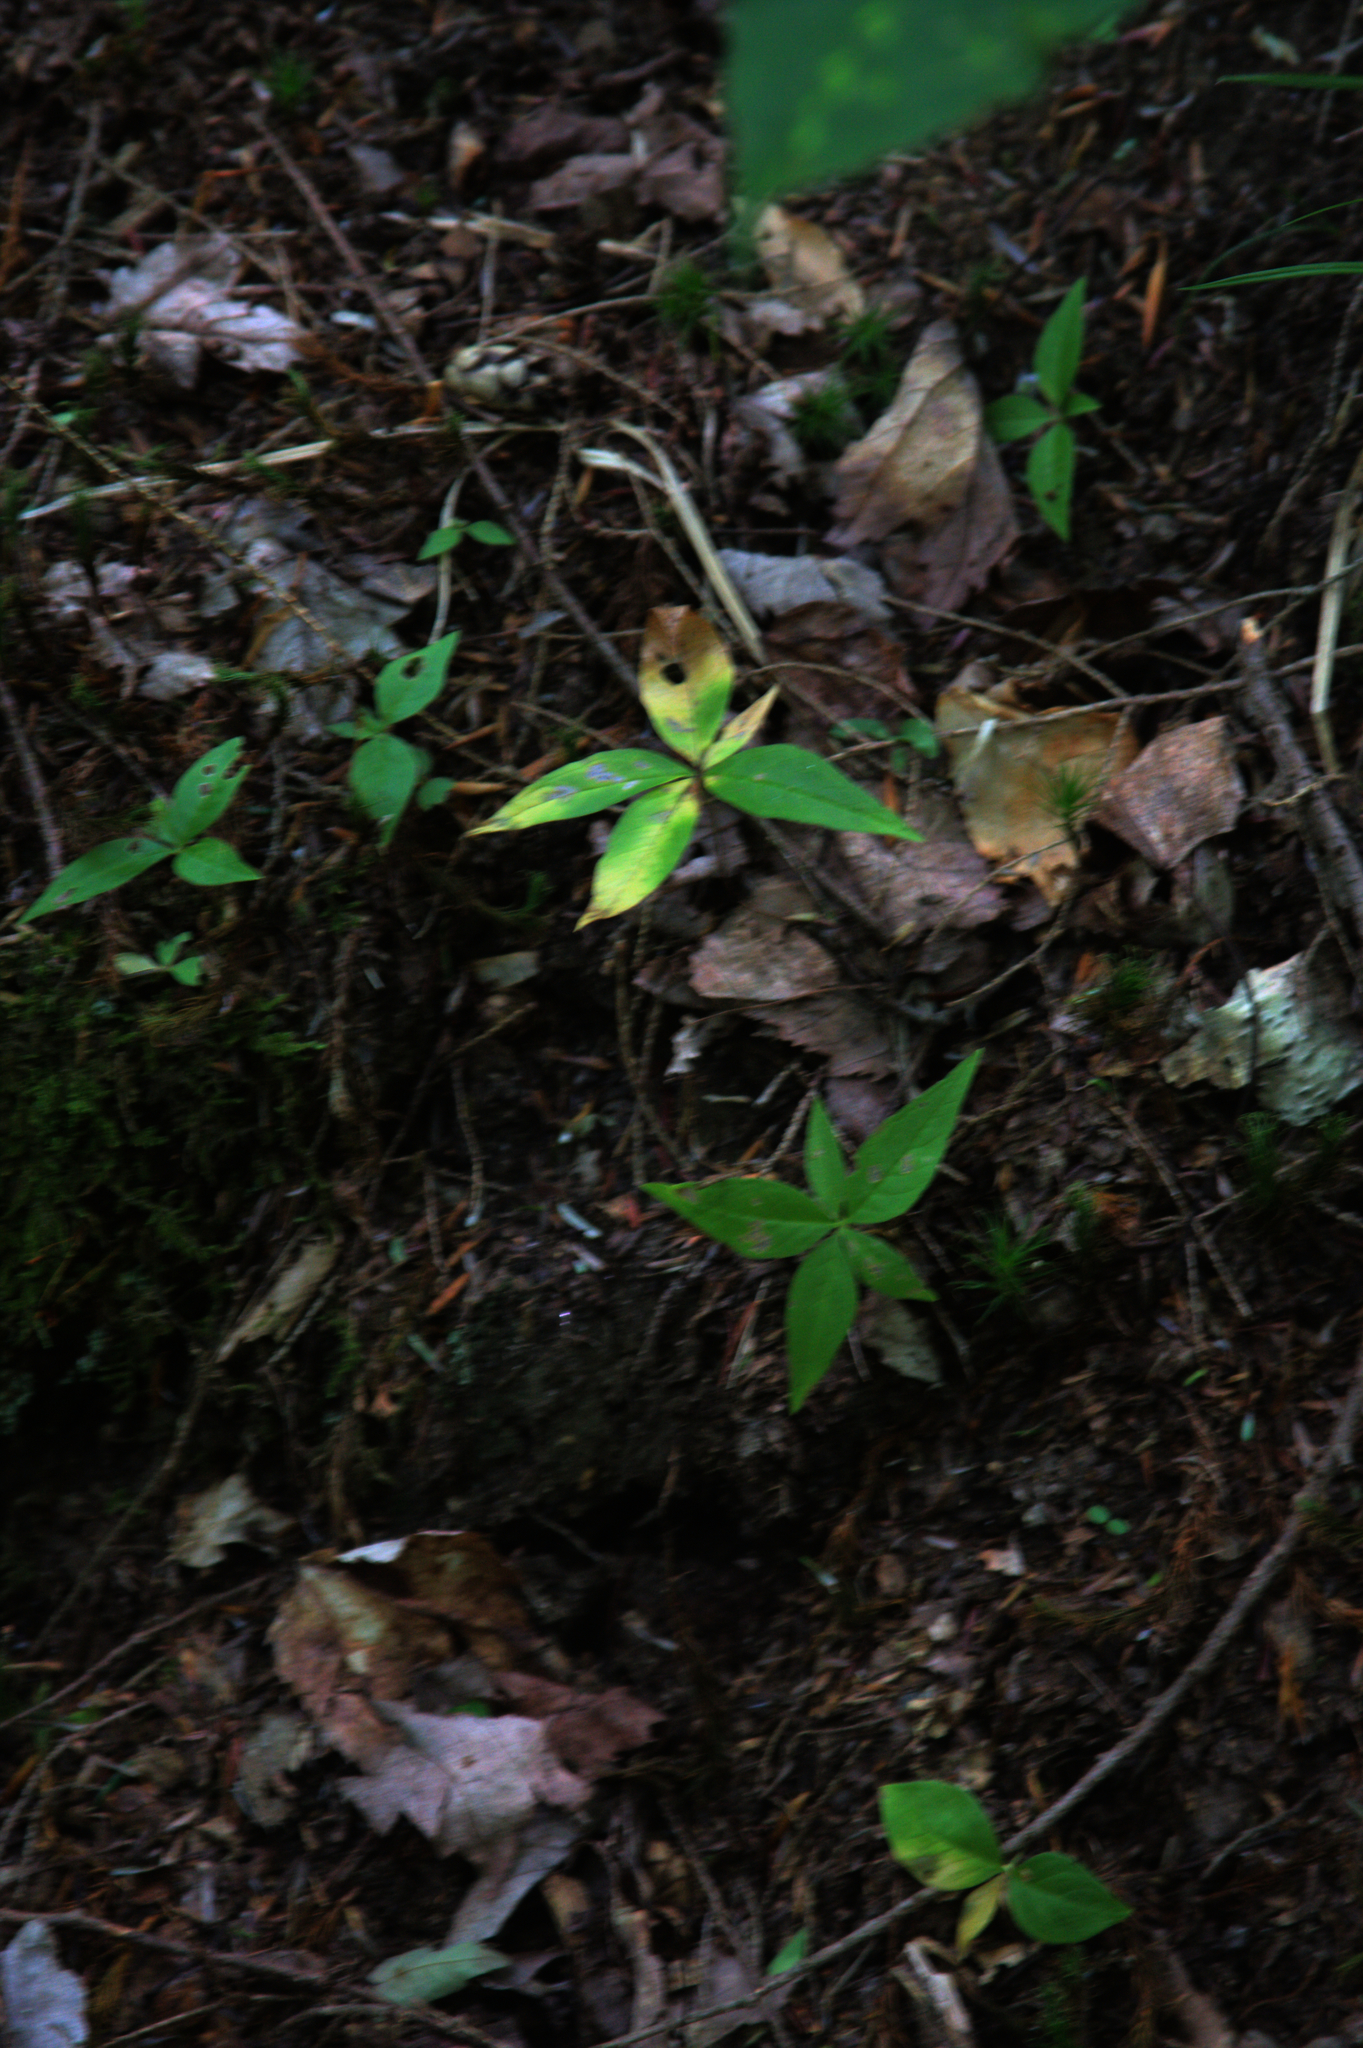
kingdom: Plantae
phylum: Tracheophyta
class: Magnoliopsida
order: Ericales
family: Primulaceae
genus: Lysimachia
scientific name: Lysimachia borealis
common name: American starflower
